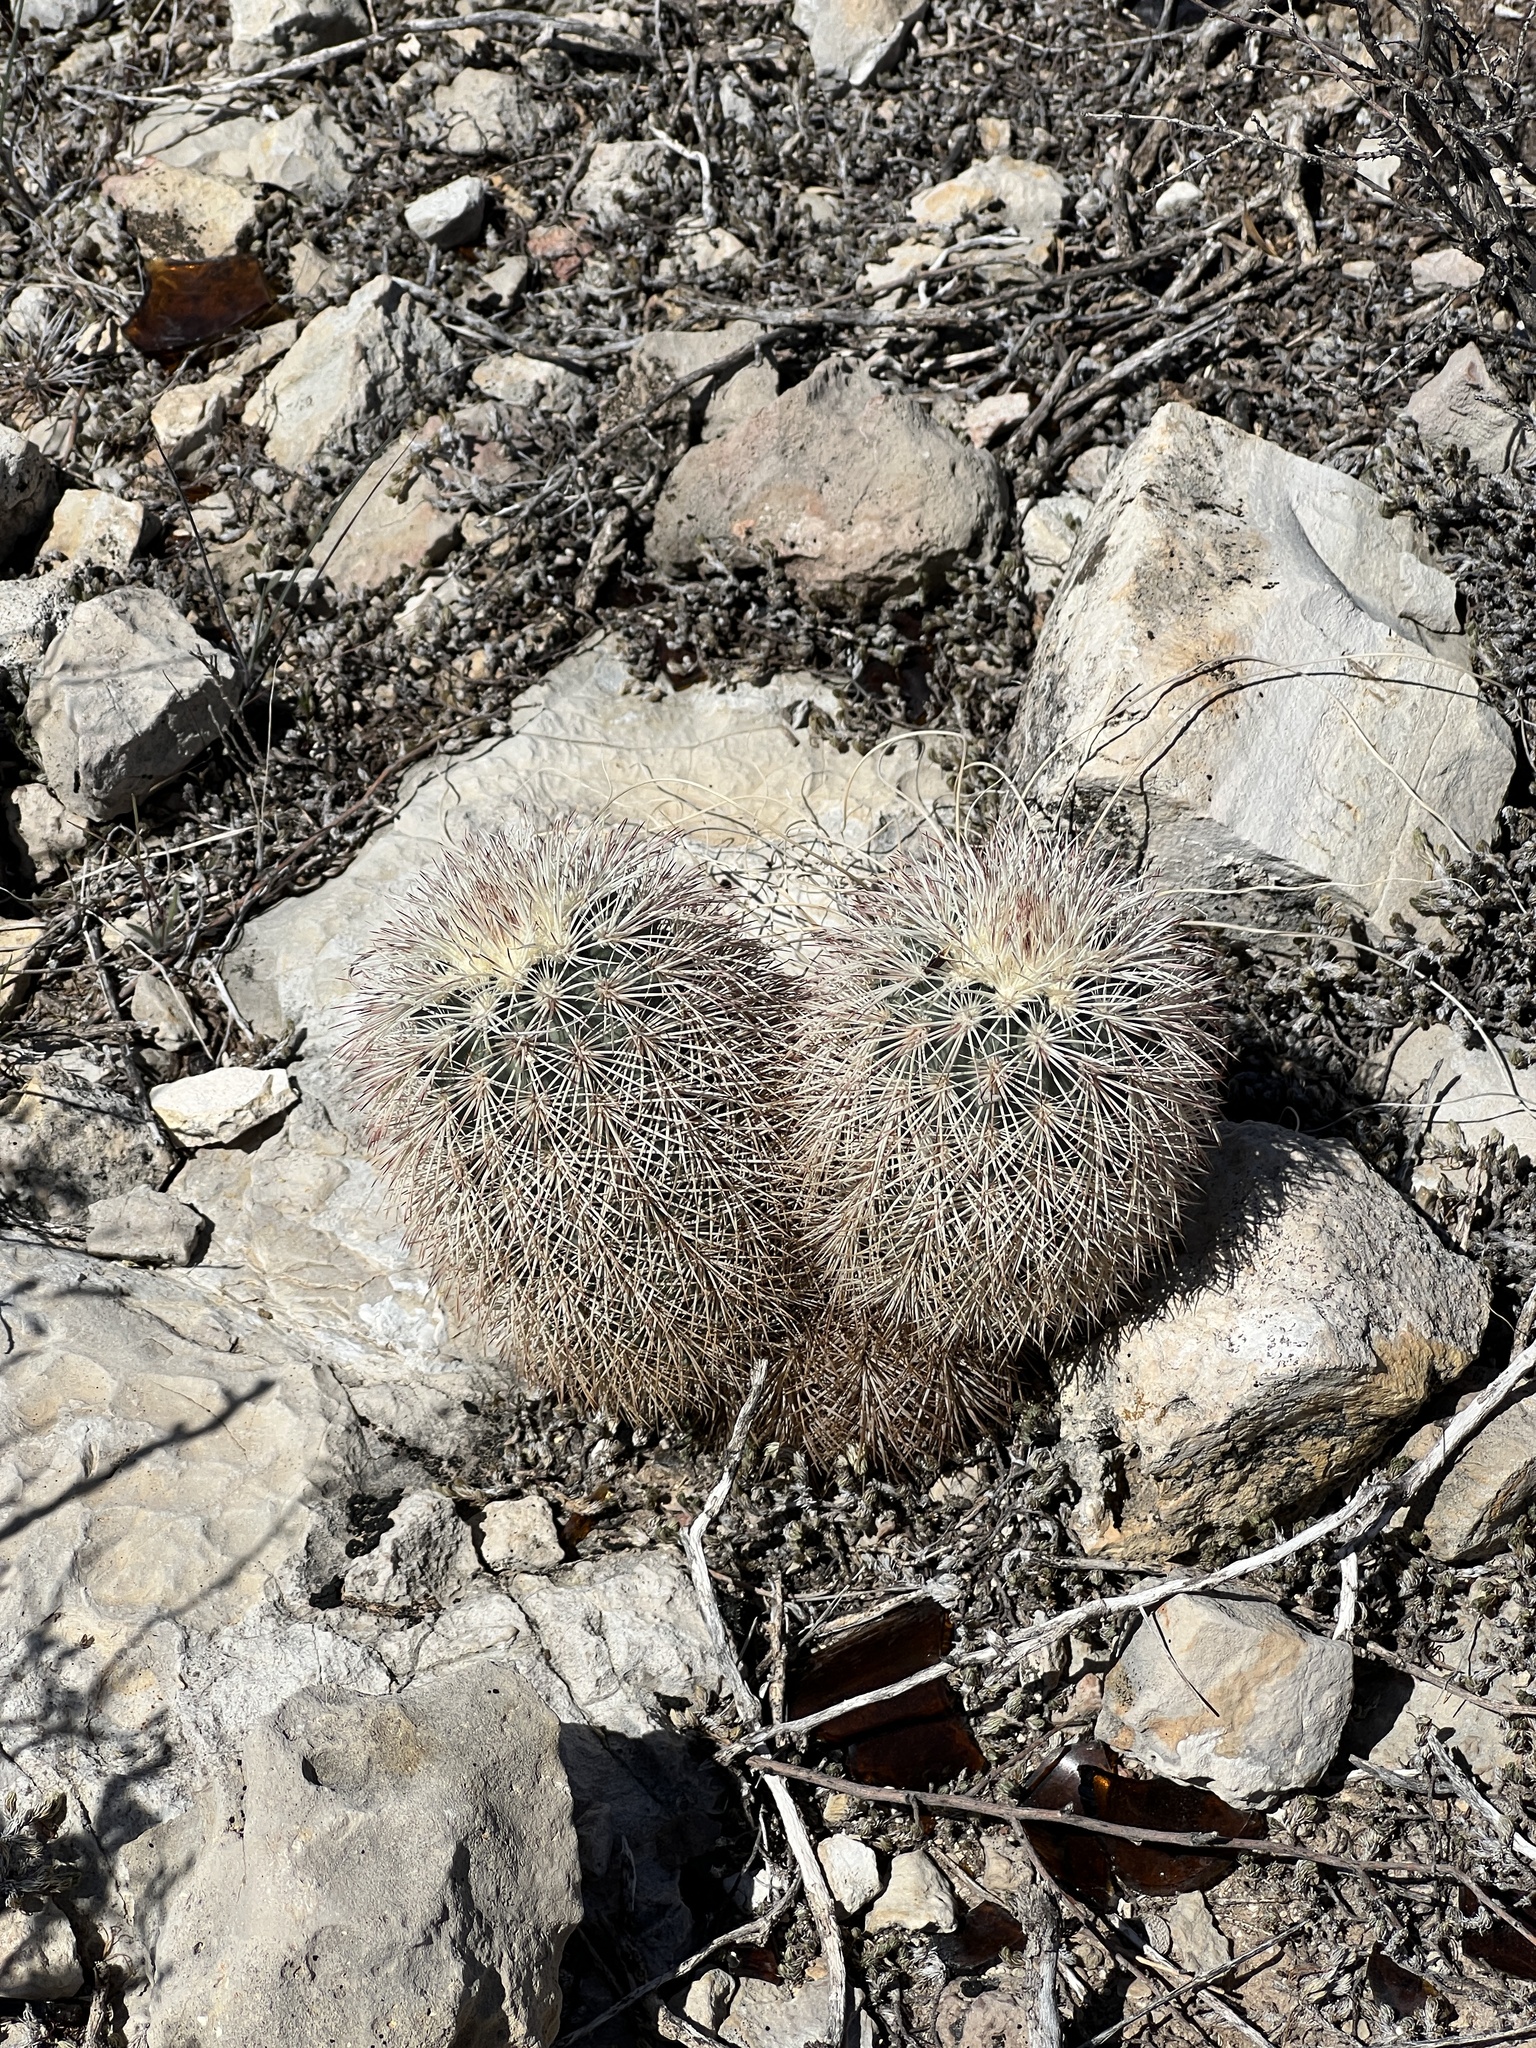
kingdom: Plantae
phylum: Tracheophyta
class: Magnoliopsida
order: Caryophyllales
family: Cactaceae
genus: Echinocereus
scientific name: Echinocereus dasyacanthus
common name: Spiny hedgehog cactus
